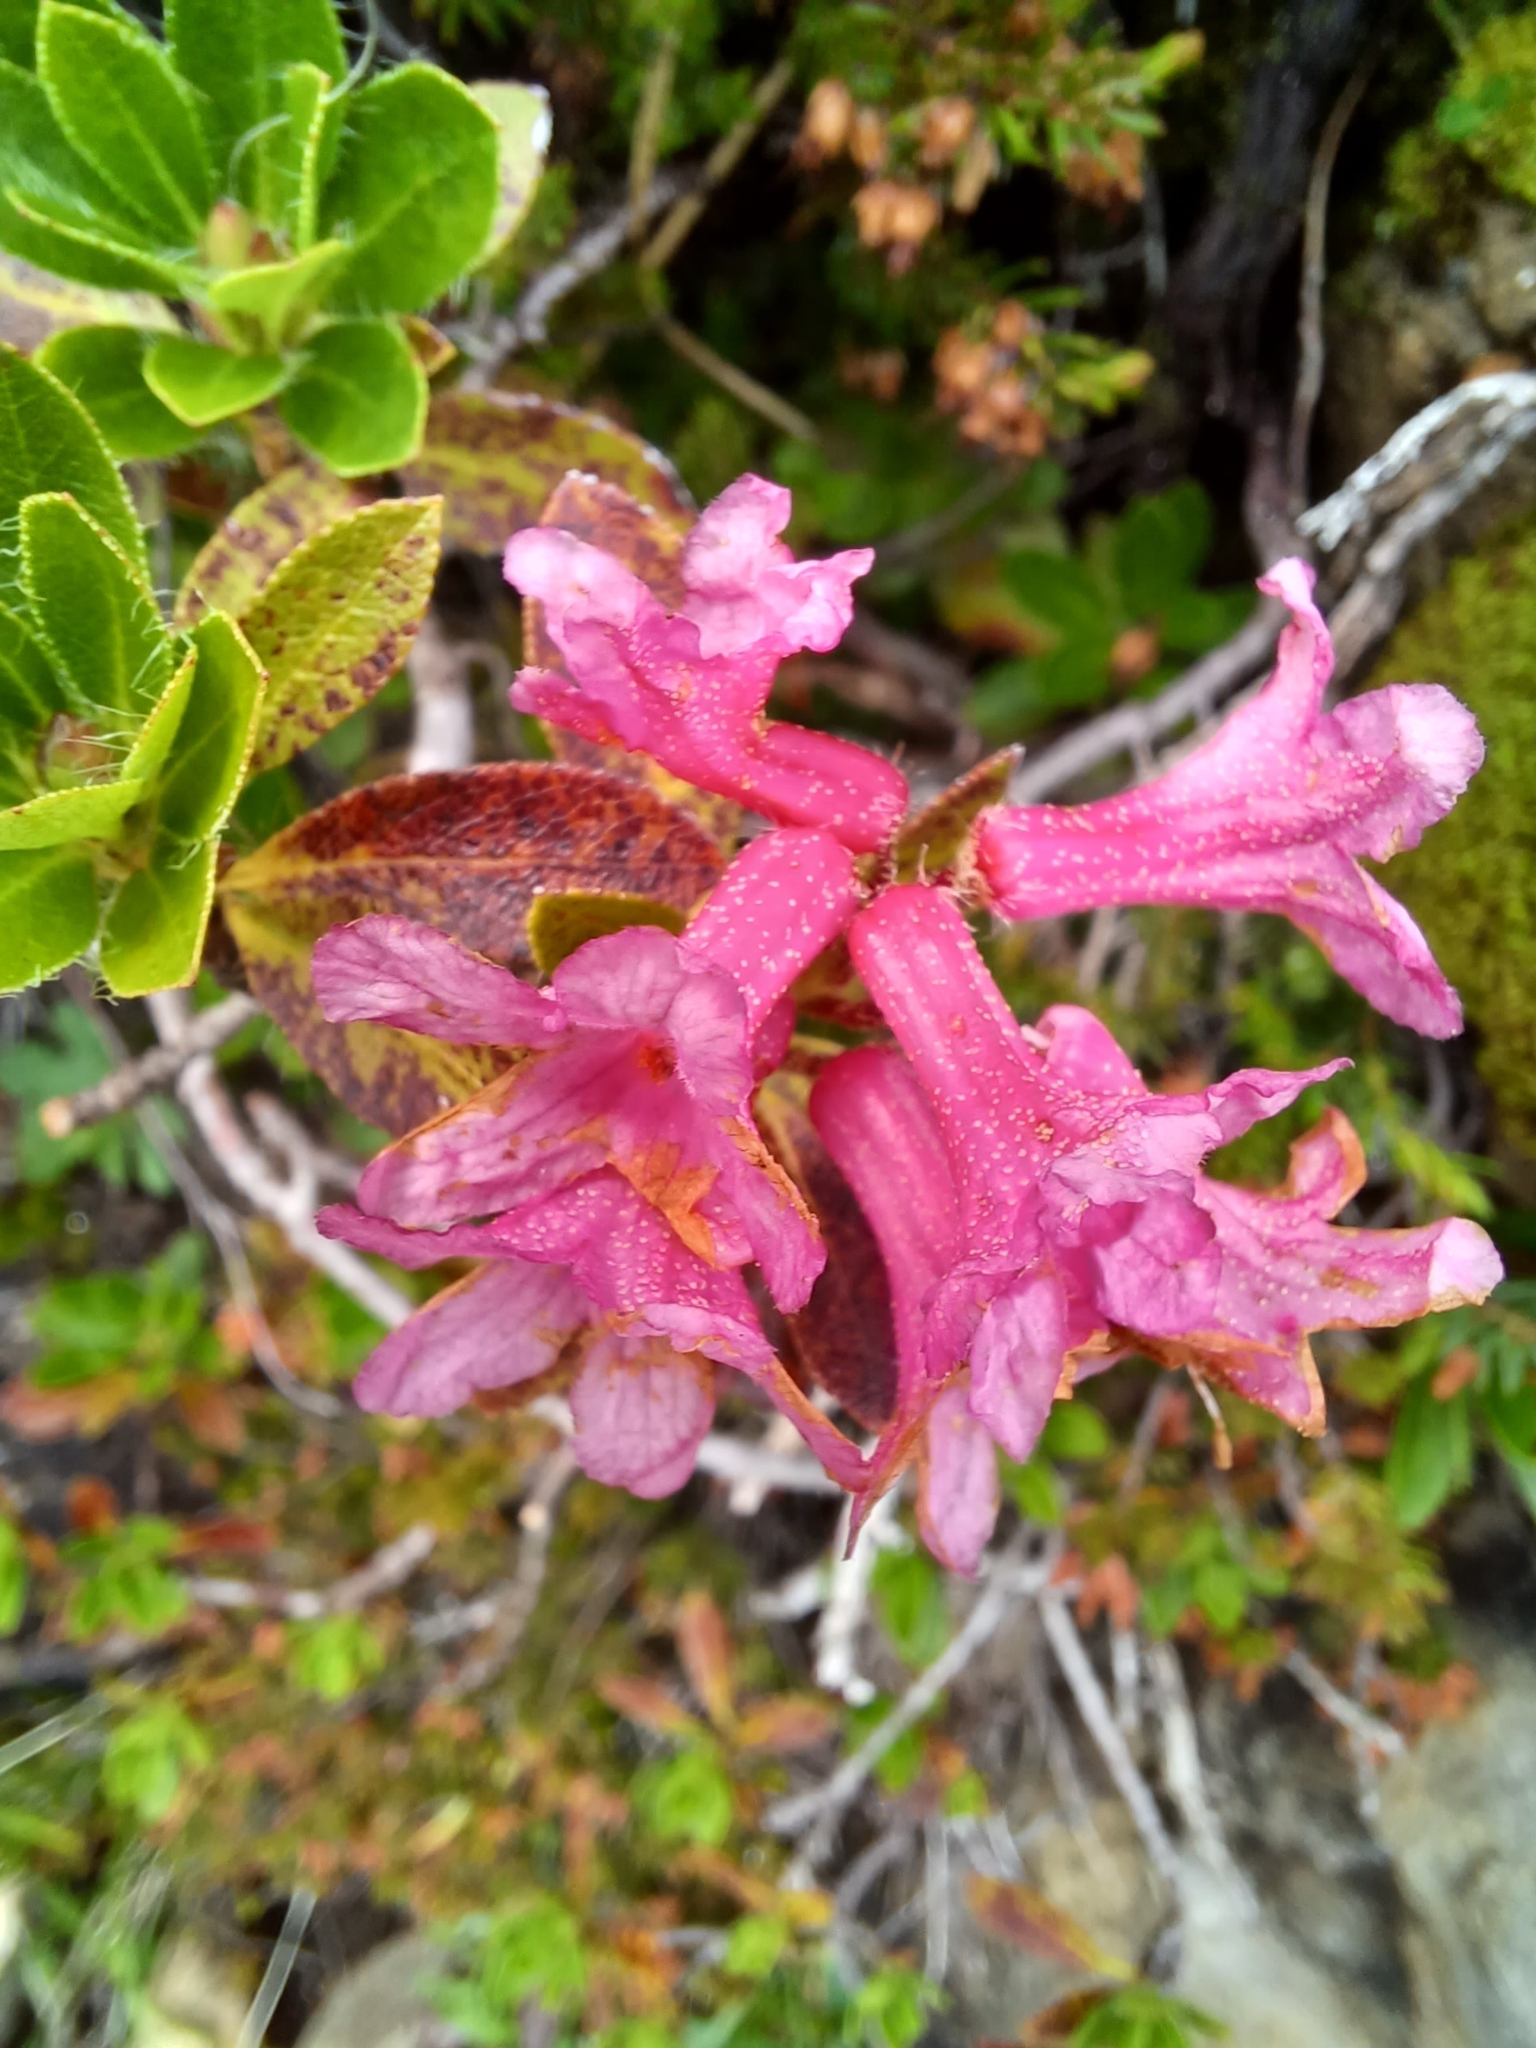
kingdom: Plantae
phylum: Tracheophyta
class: Magnoliopsida
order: Ericales
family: Ericaceae
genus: Rhododendron
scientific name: Rhododendron hirsutum
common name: Hairy alpenrose
